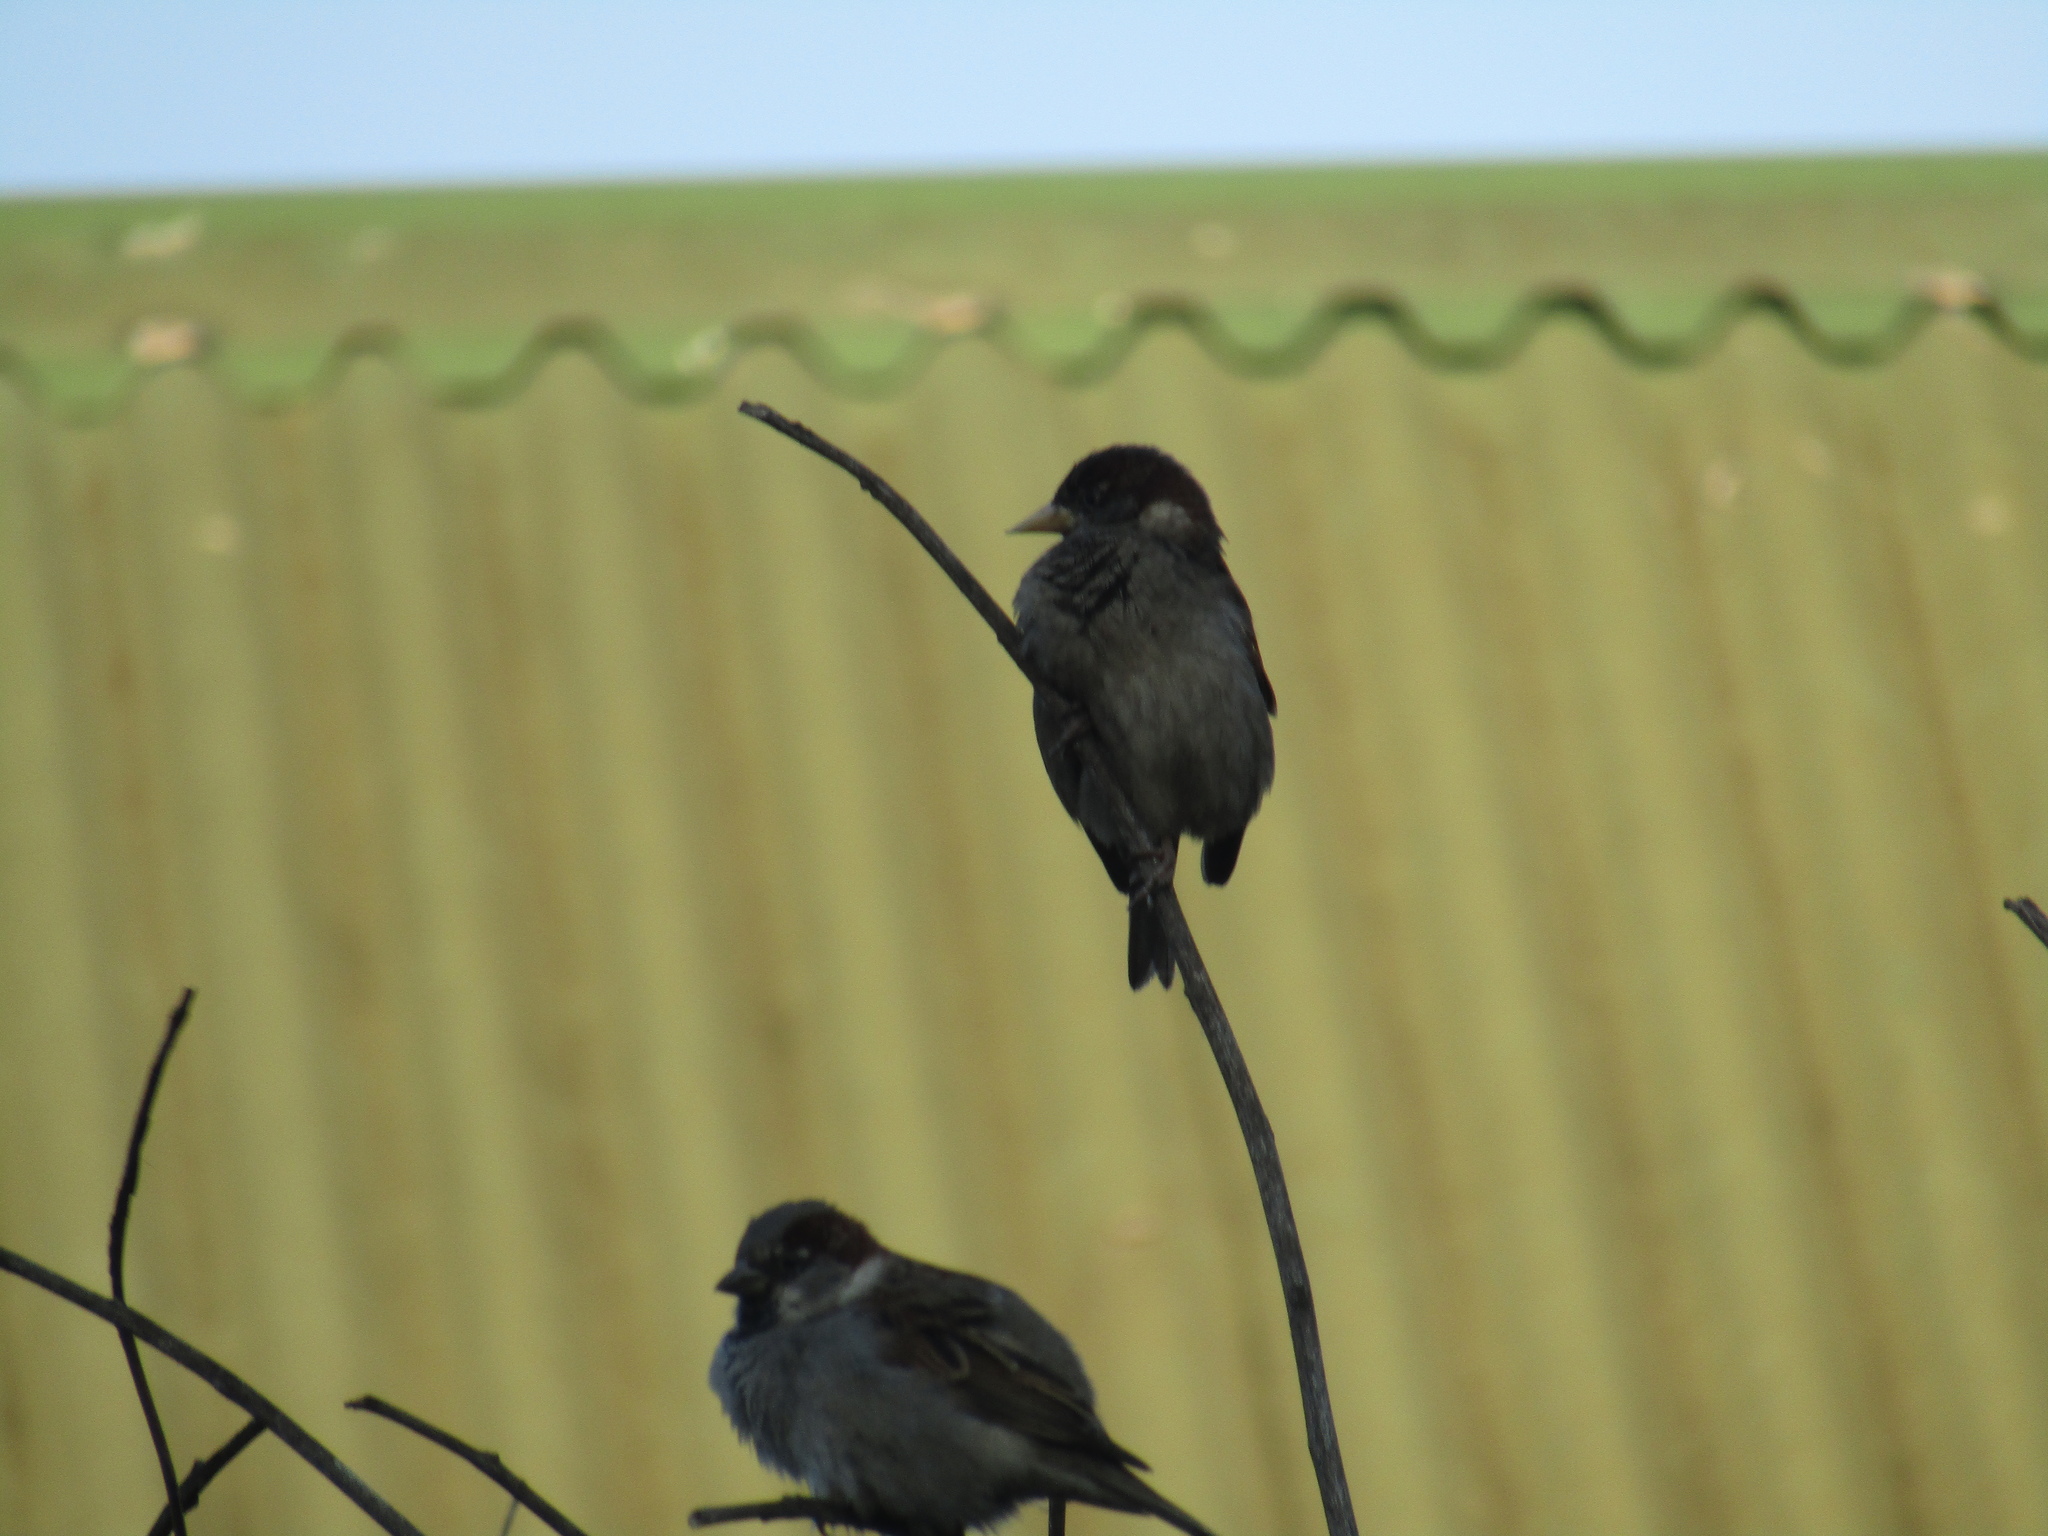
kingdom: Animalia
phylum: Chordata
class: Aves
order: Passeriformes
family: Passeridae
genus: Passer
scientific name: Passer domesticus
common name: House sparrow
